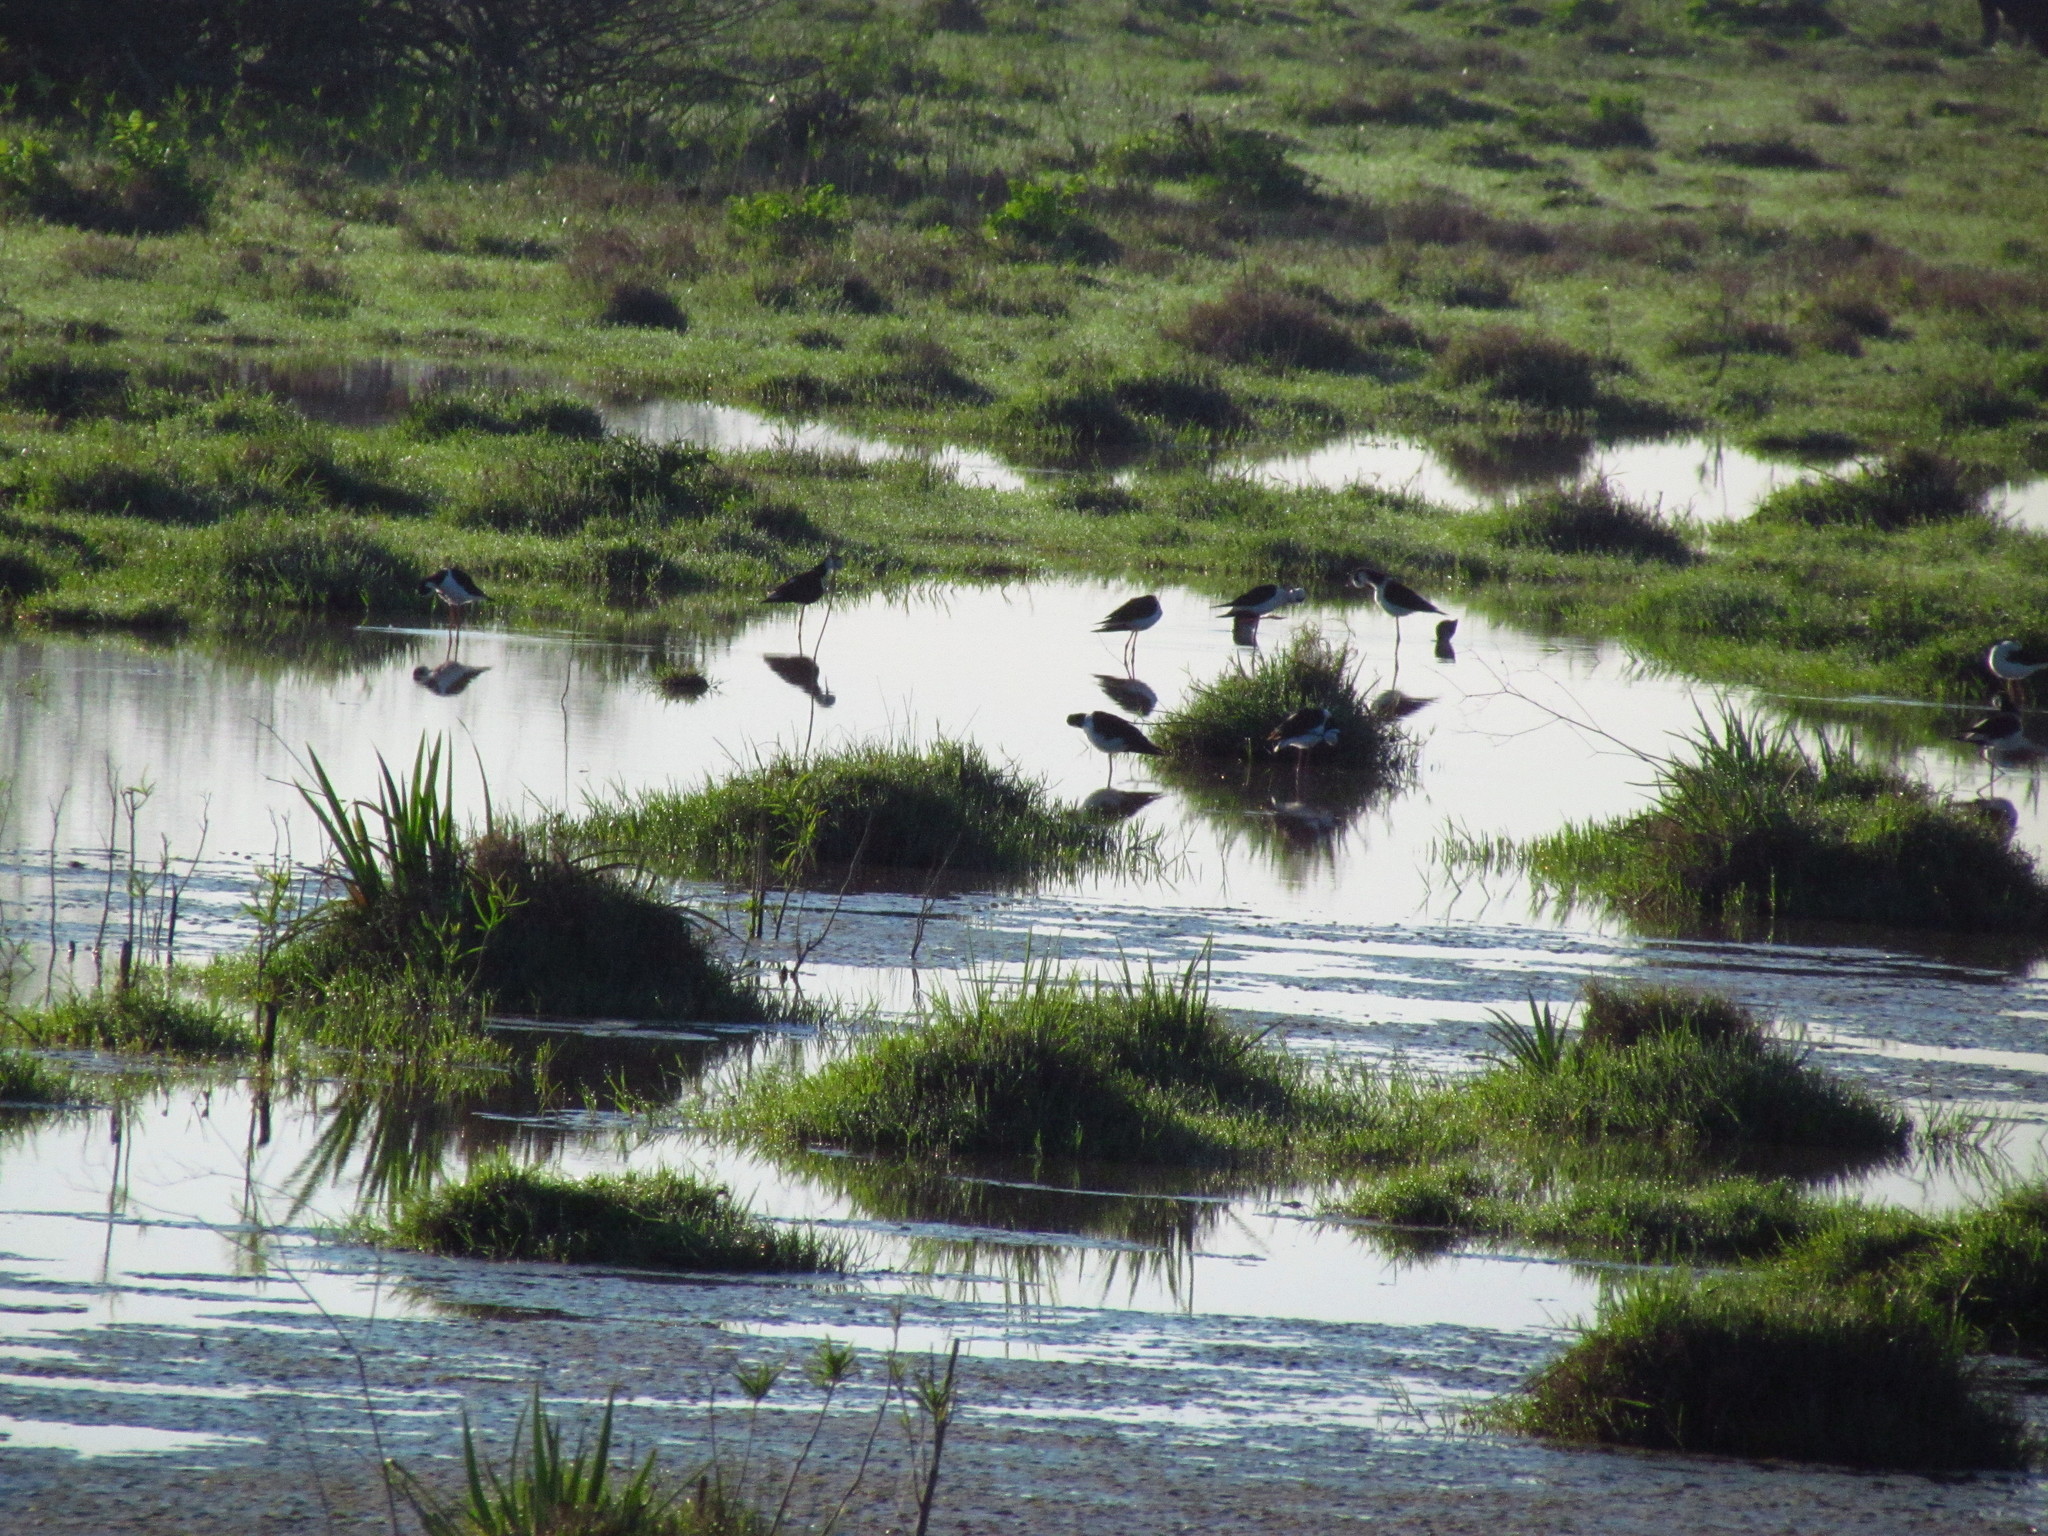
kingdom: Animalia
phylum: Chordata
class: Aves
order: Charadriiformes
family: Recurvirostridae
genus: Himantopus
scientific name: Himantopus mexicanus
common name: Black-necked stilt
